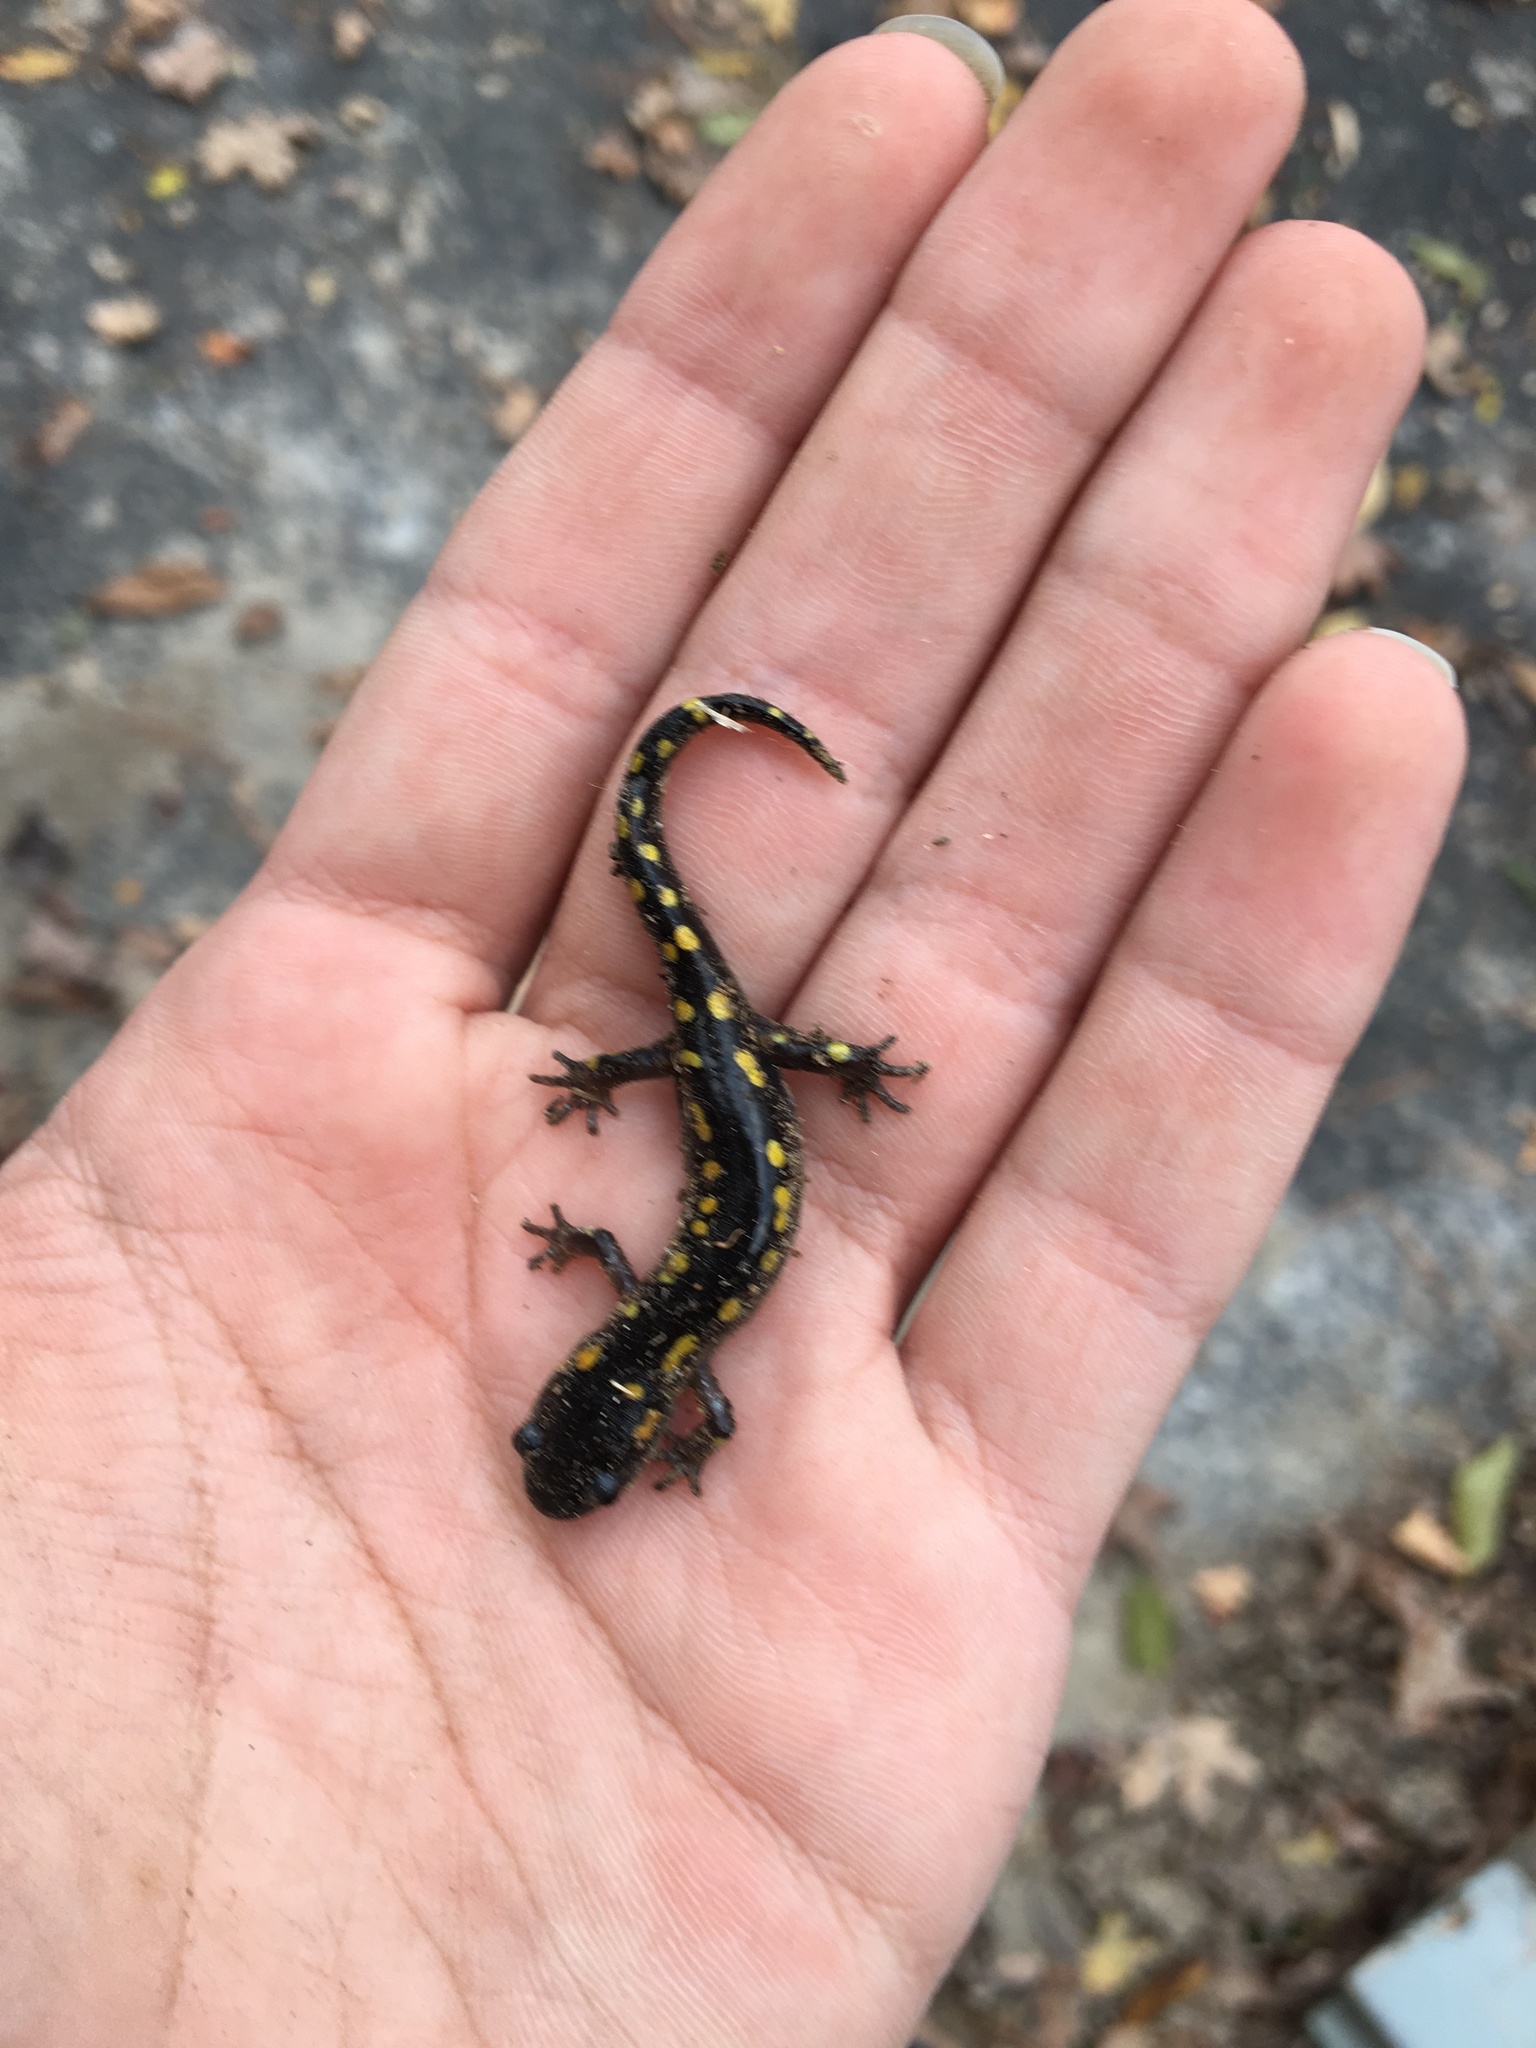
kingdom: Animalia
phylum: Chordata
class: Amphibia
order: Caudata
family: Ambystomatidae
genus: Ambystoma
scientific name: Ambystoma maculatum
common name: Spotted salamander
